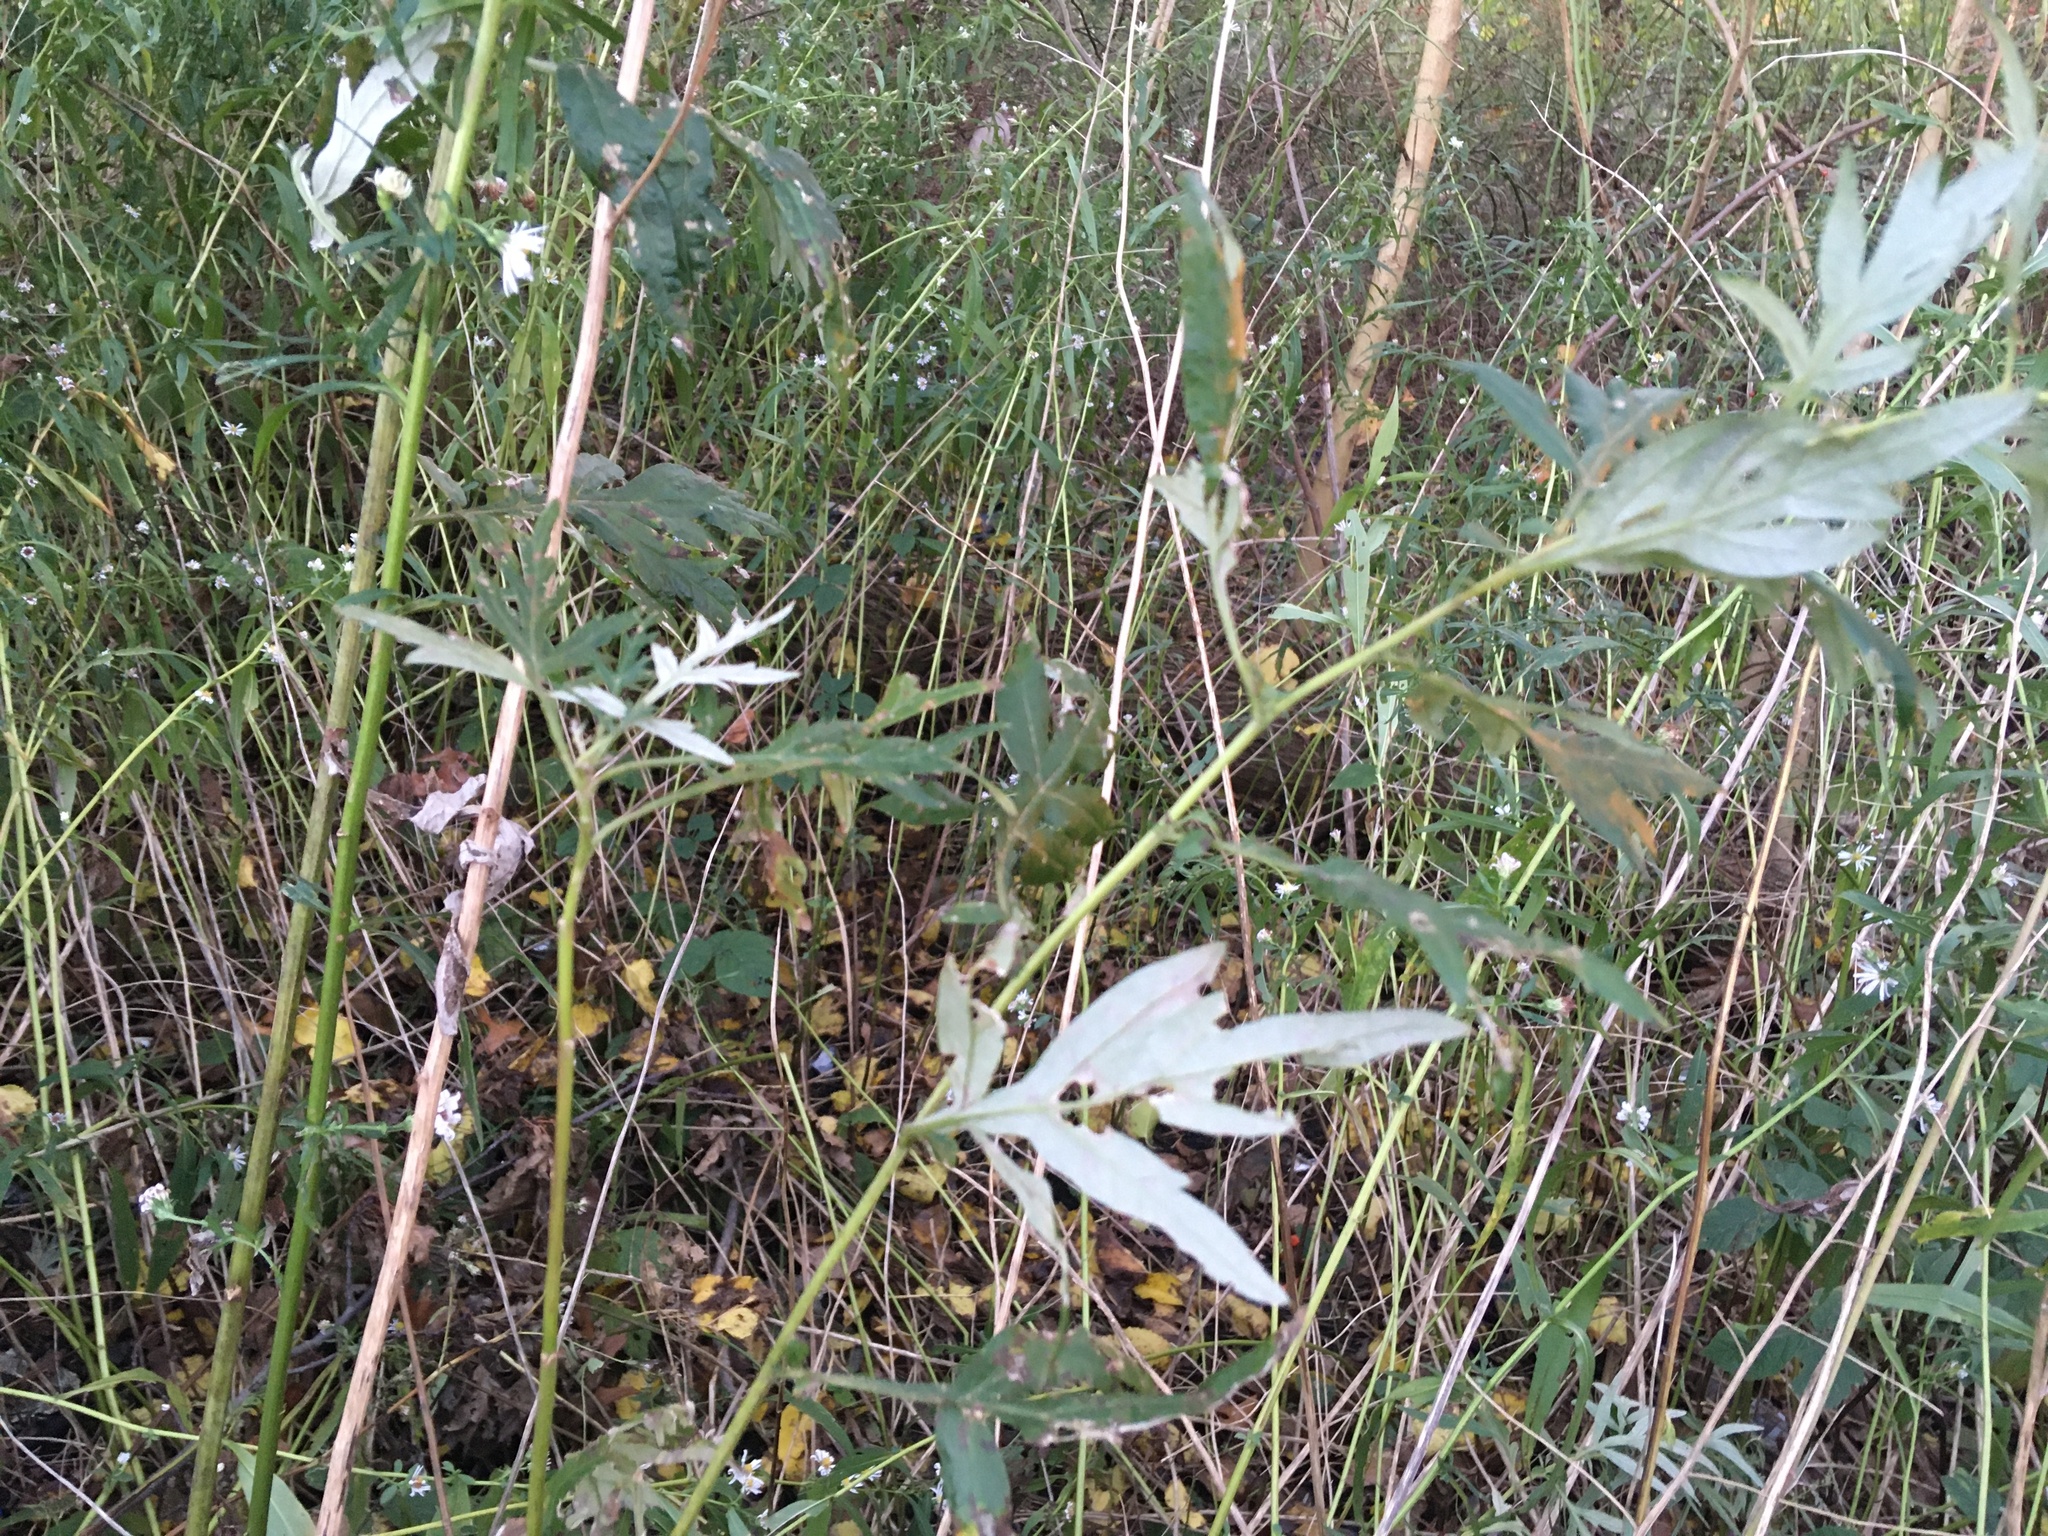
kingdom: Plantae
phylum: Tracheophyta
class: Magnoliopsida
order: Asterales
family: Asteraceae
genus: Artemisia
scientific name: Artemisia vulgaris
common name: Mugwort
